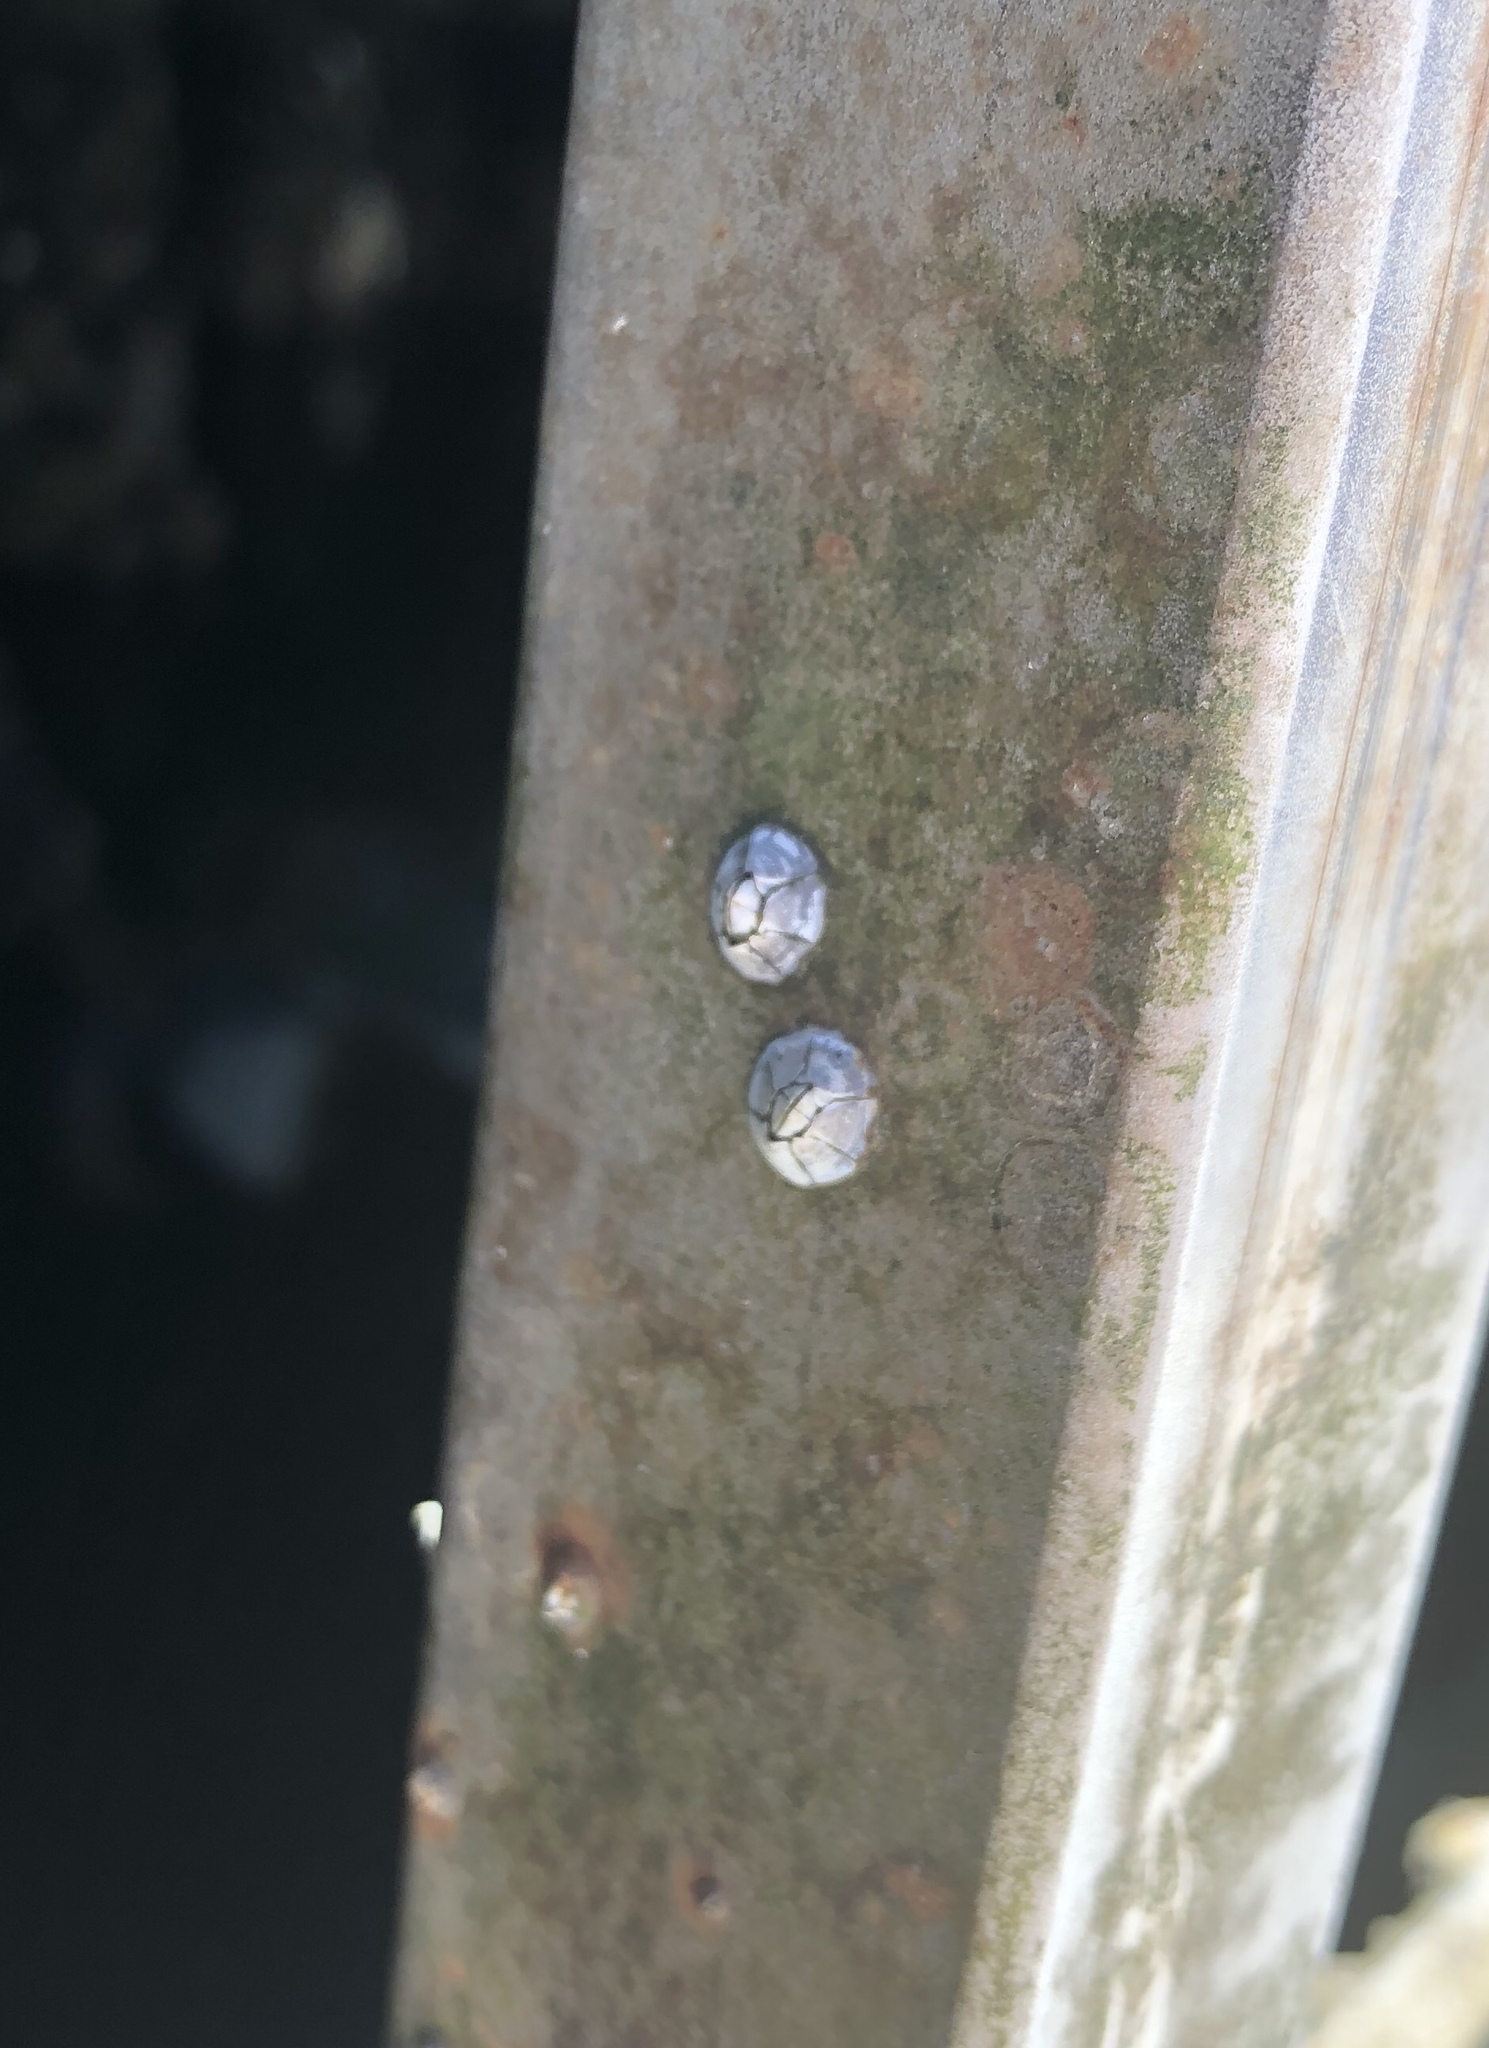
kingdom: Animalia
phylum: Arthropoda
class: Maxillopoda
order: Sessilia
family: Chthamalidae
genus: Chthamalus
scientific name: Chthamalus fragilis
